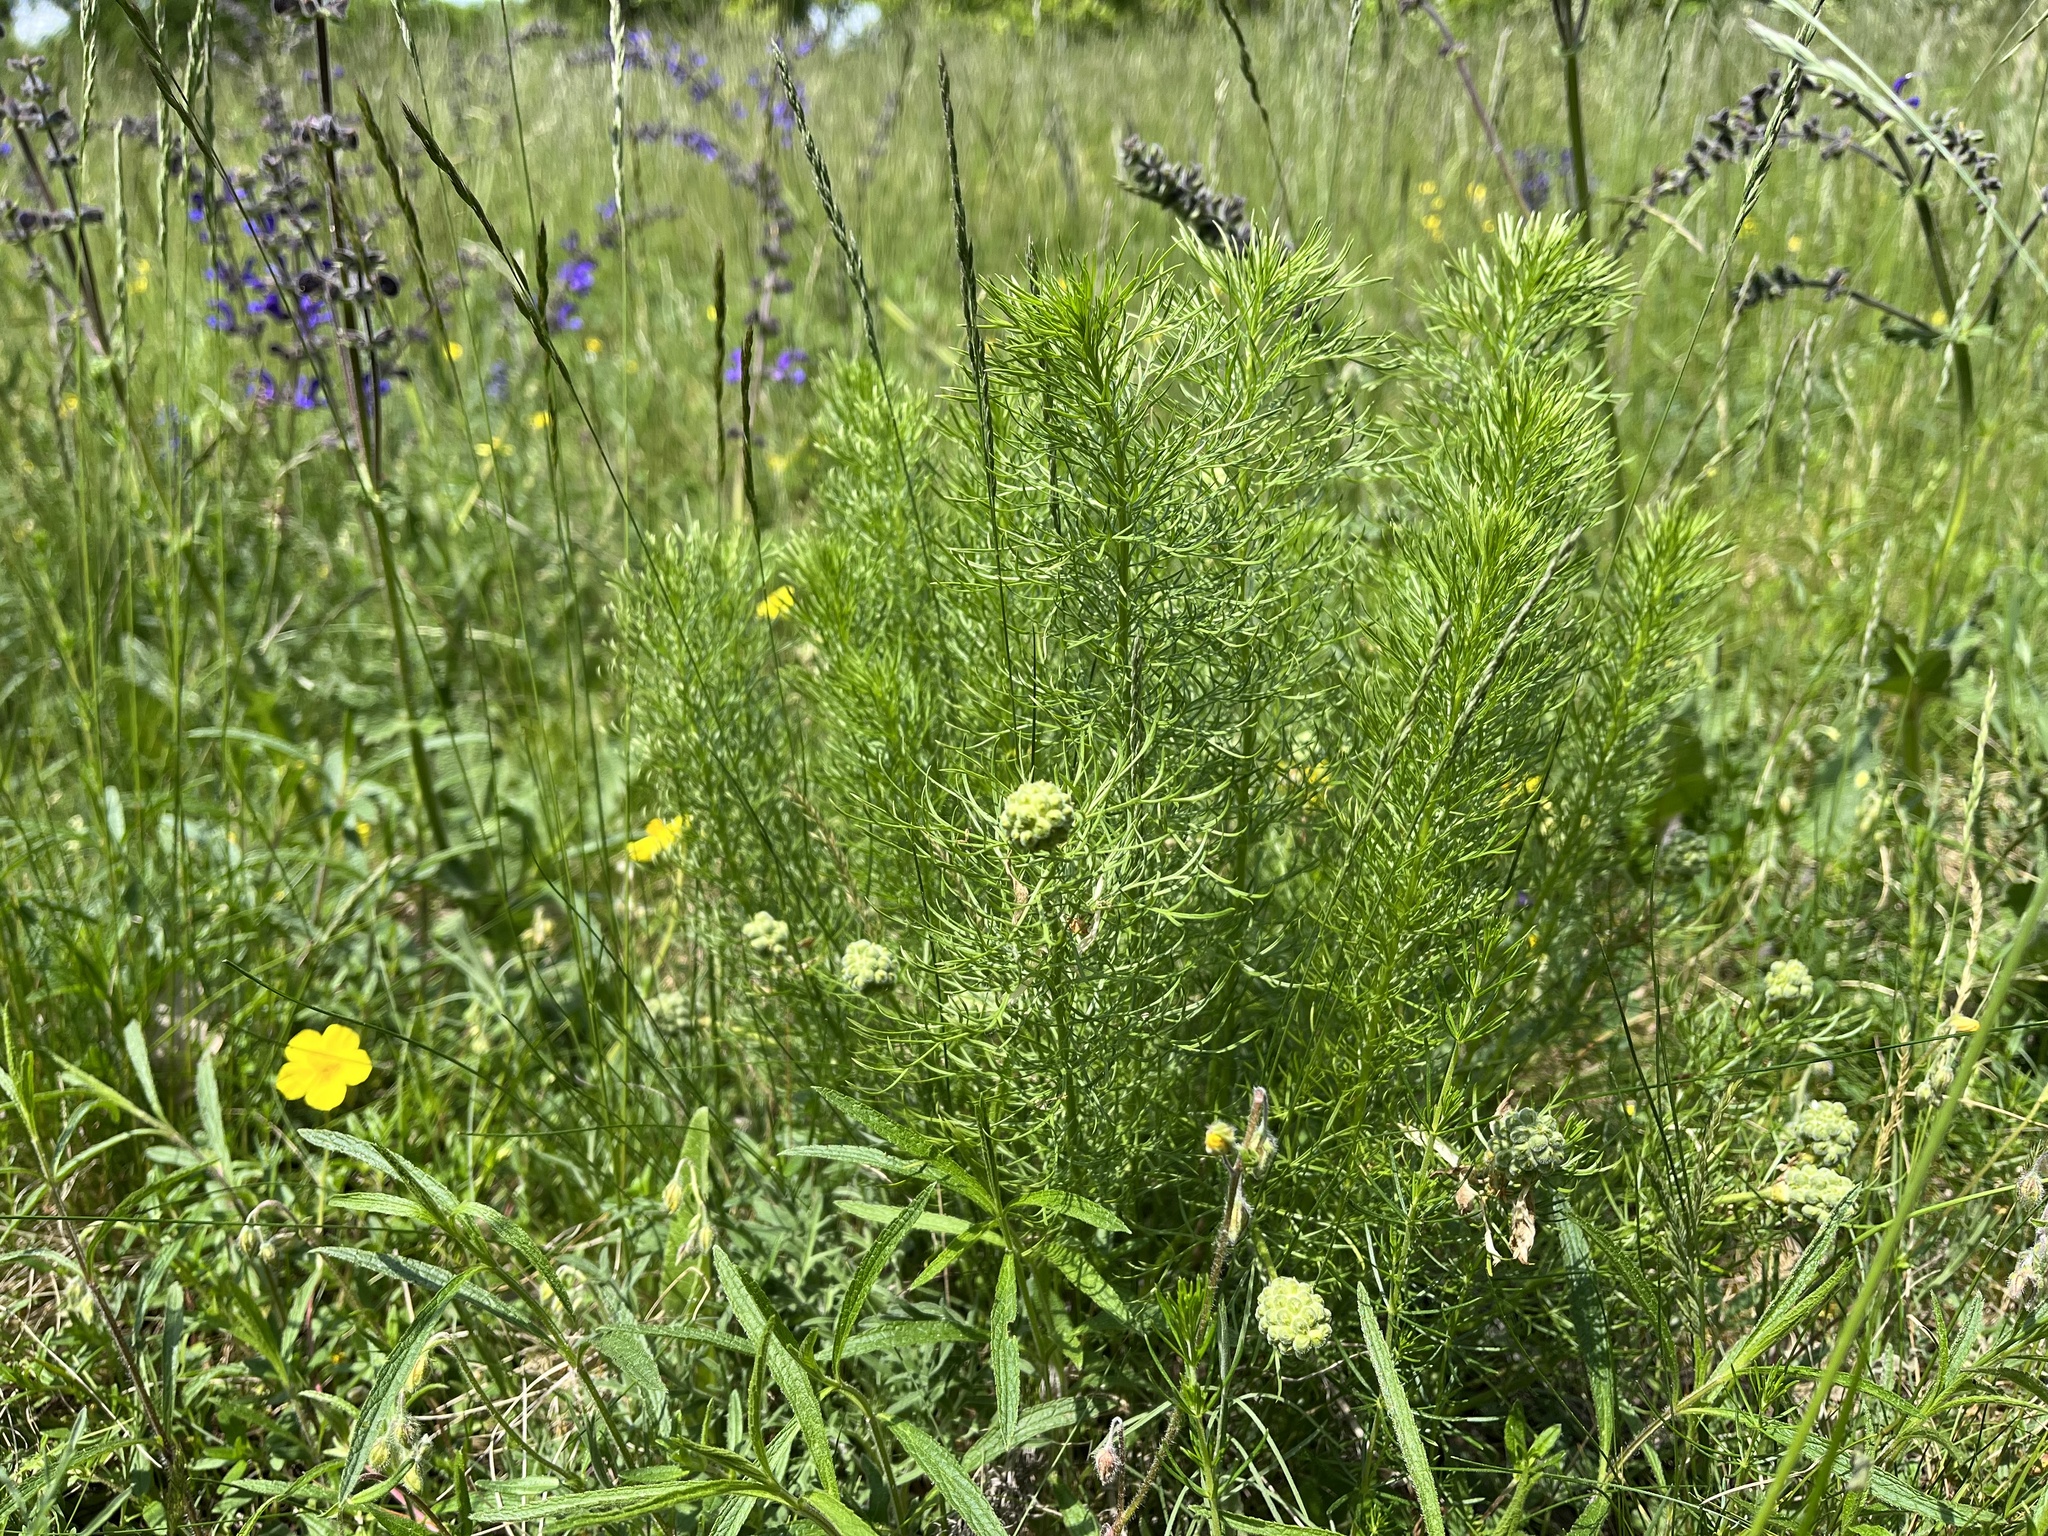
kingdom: Plantae
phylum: Tracheophyta
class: Magnoliopsida
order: Ranunculales
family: Ranunculaceae
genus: Adonis
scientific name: Adonis vernalis
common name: Yellow pheasants-eye
